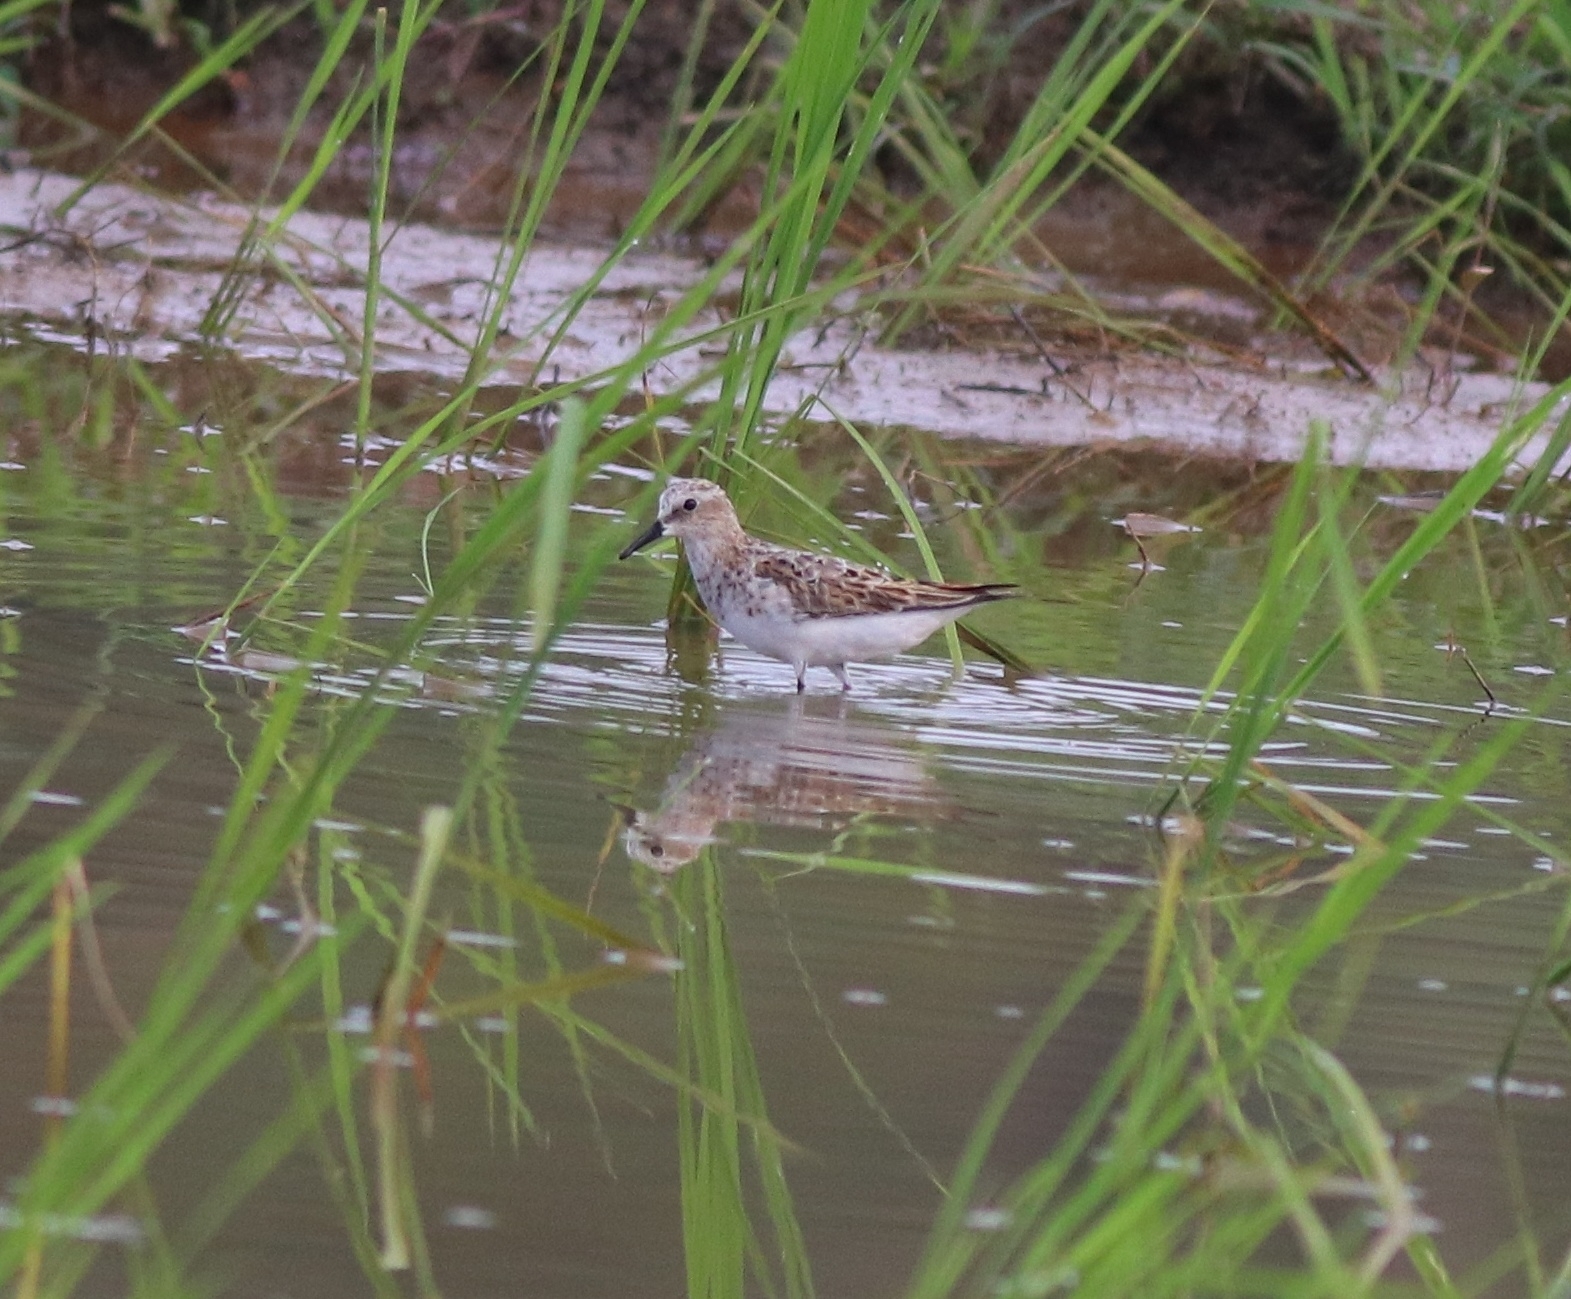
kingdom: Animalia
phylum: Chordata
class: Aves
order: Charadriiformes
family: Scolopacidae
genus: Calidris
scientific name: Calidris minuta
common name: Little stint
